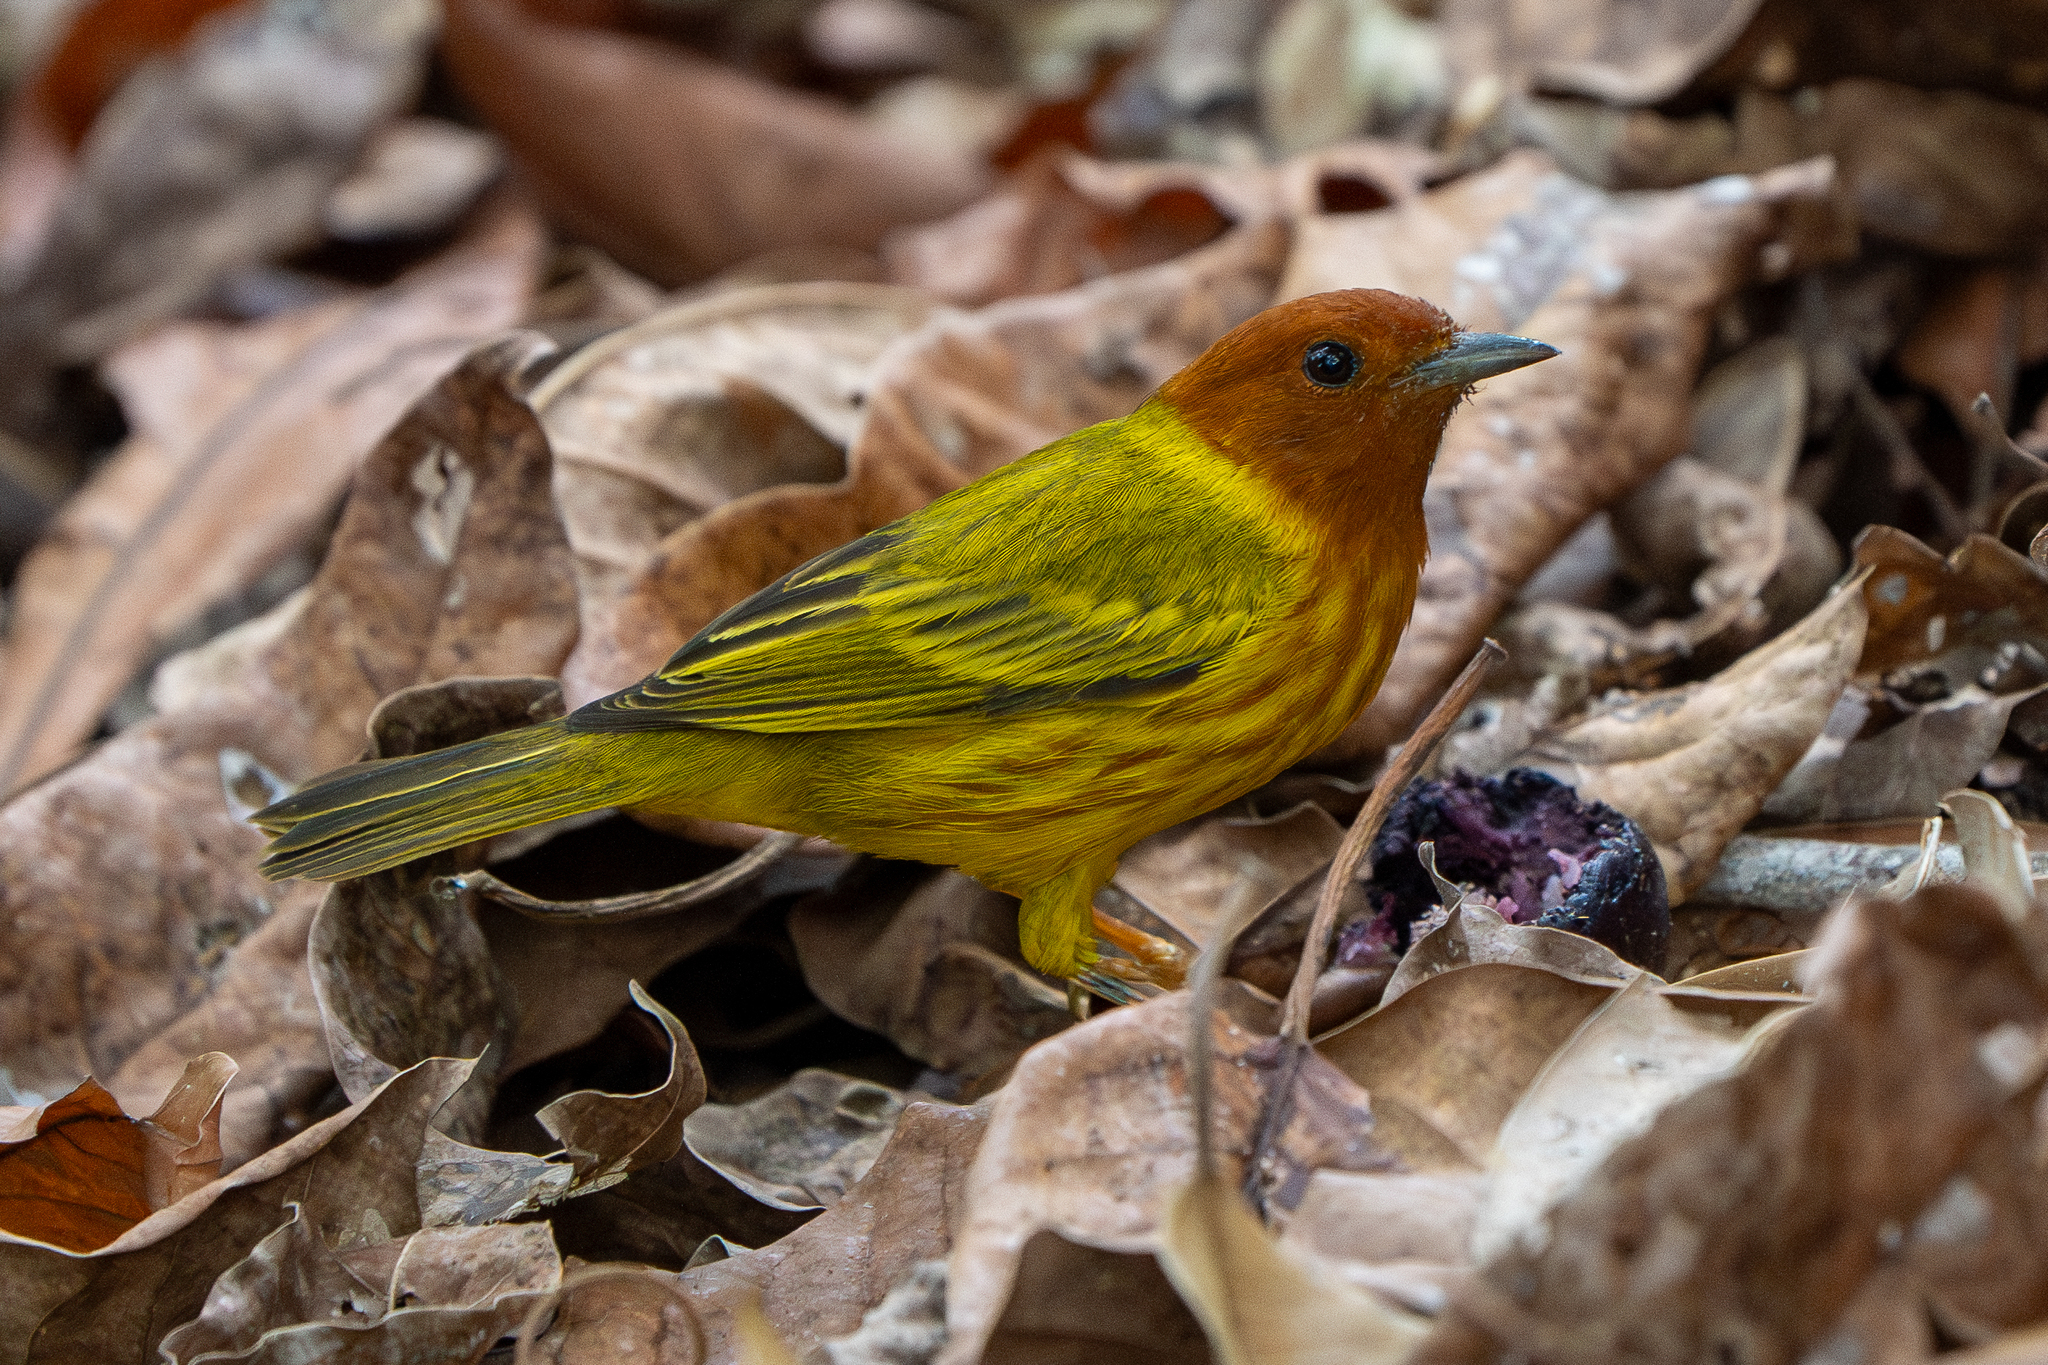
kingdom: Animalia
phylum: Chordata
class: Aves
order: Passeriformes
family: Parulidae
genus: Setophaga
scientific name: Setophaga petechia
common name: Yellow warbler
